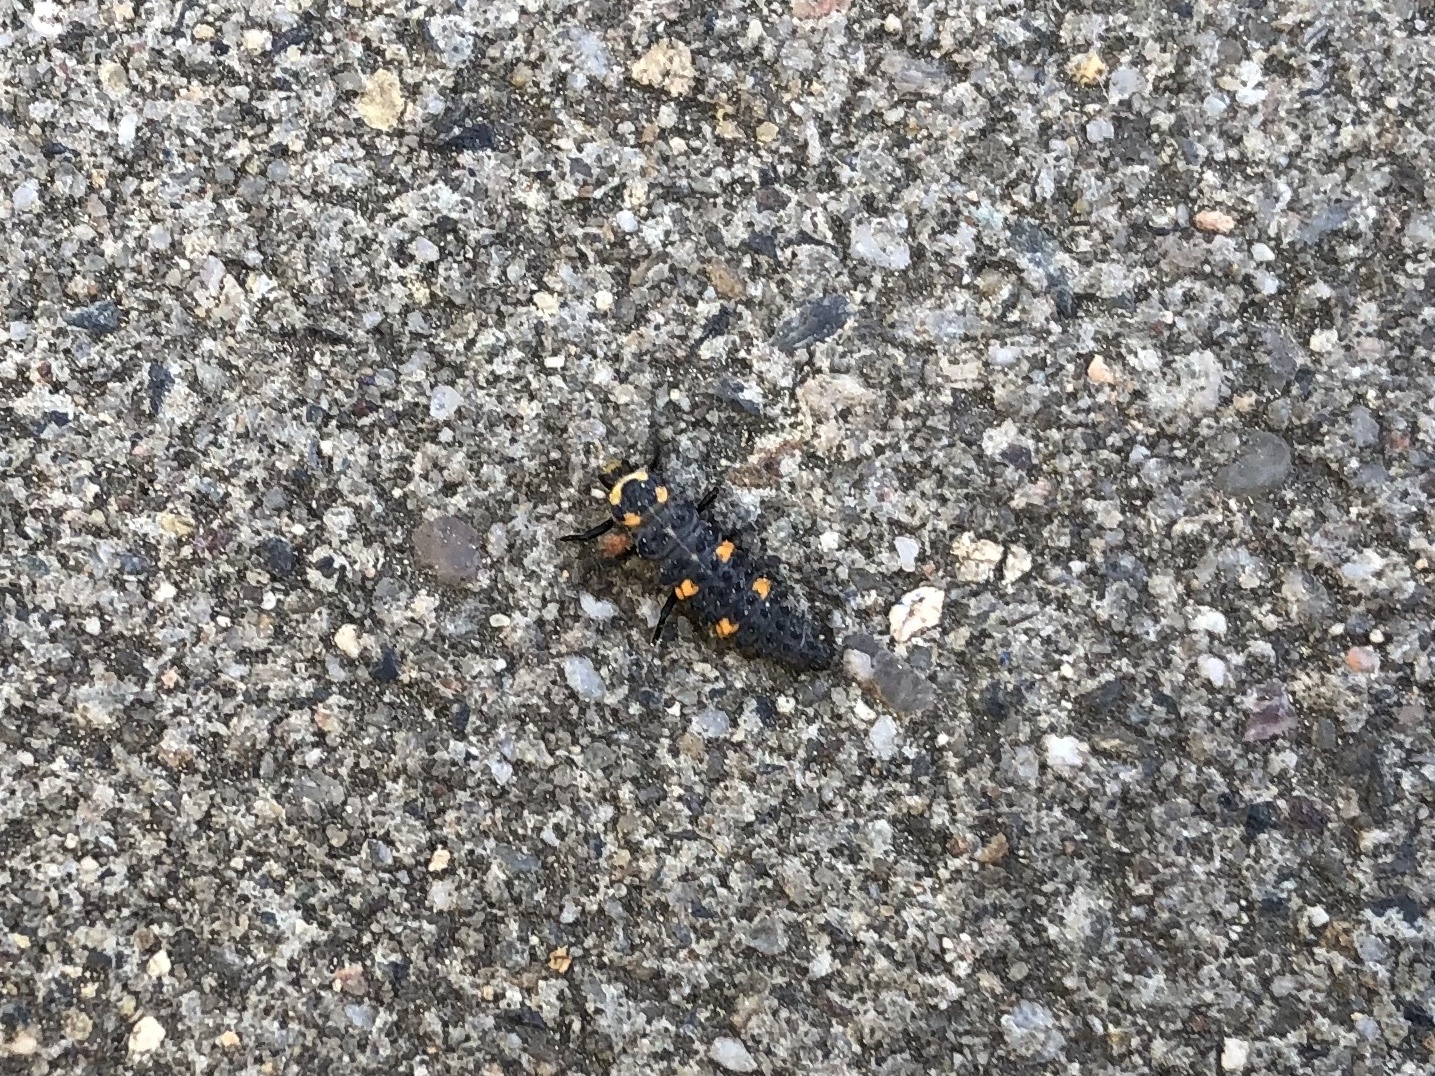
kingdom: Animalia
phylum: Arthropoda
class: Insecta
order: Coleoptera
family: Coccinellidae
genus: Coccinella
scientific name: Coccinella septempunctata
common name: Sevenspotted lady beetle
